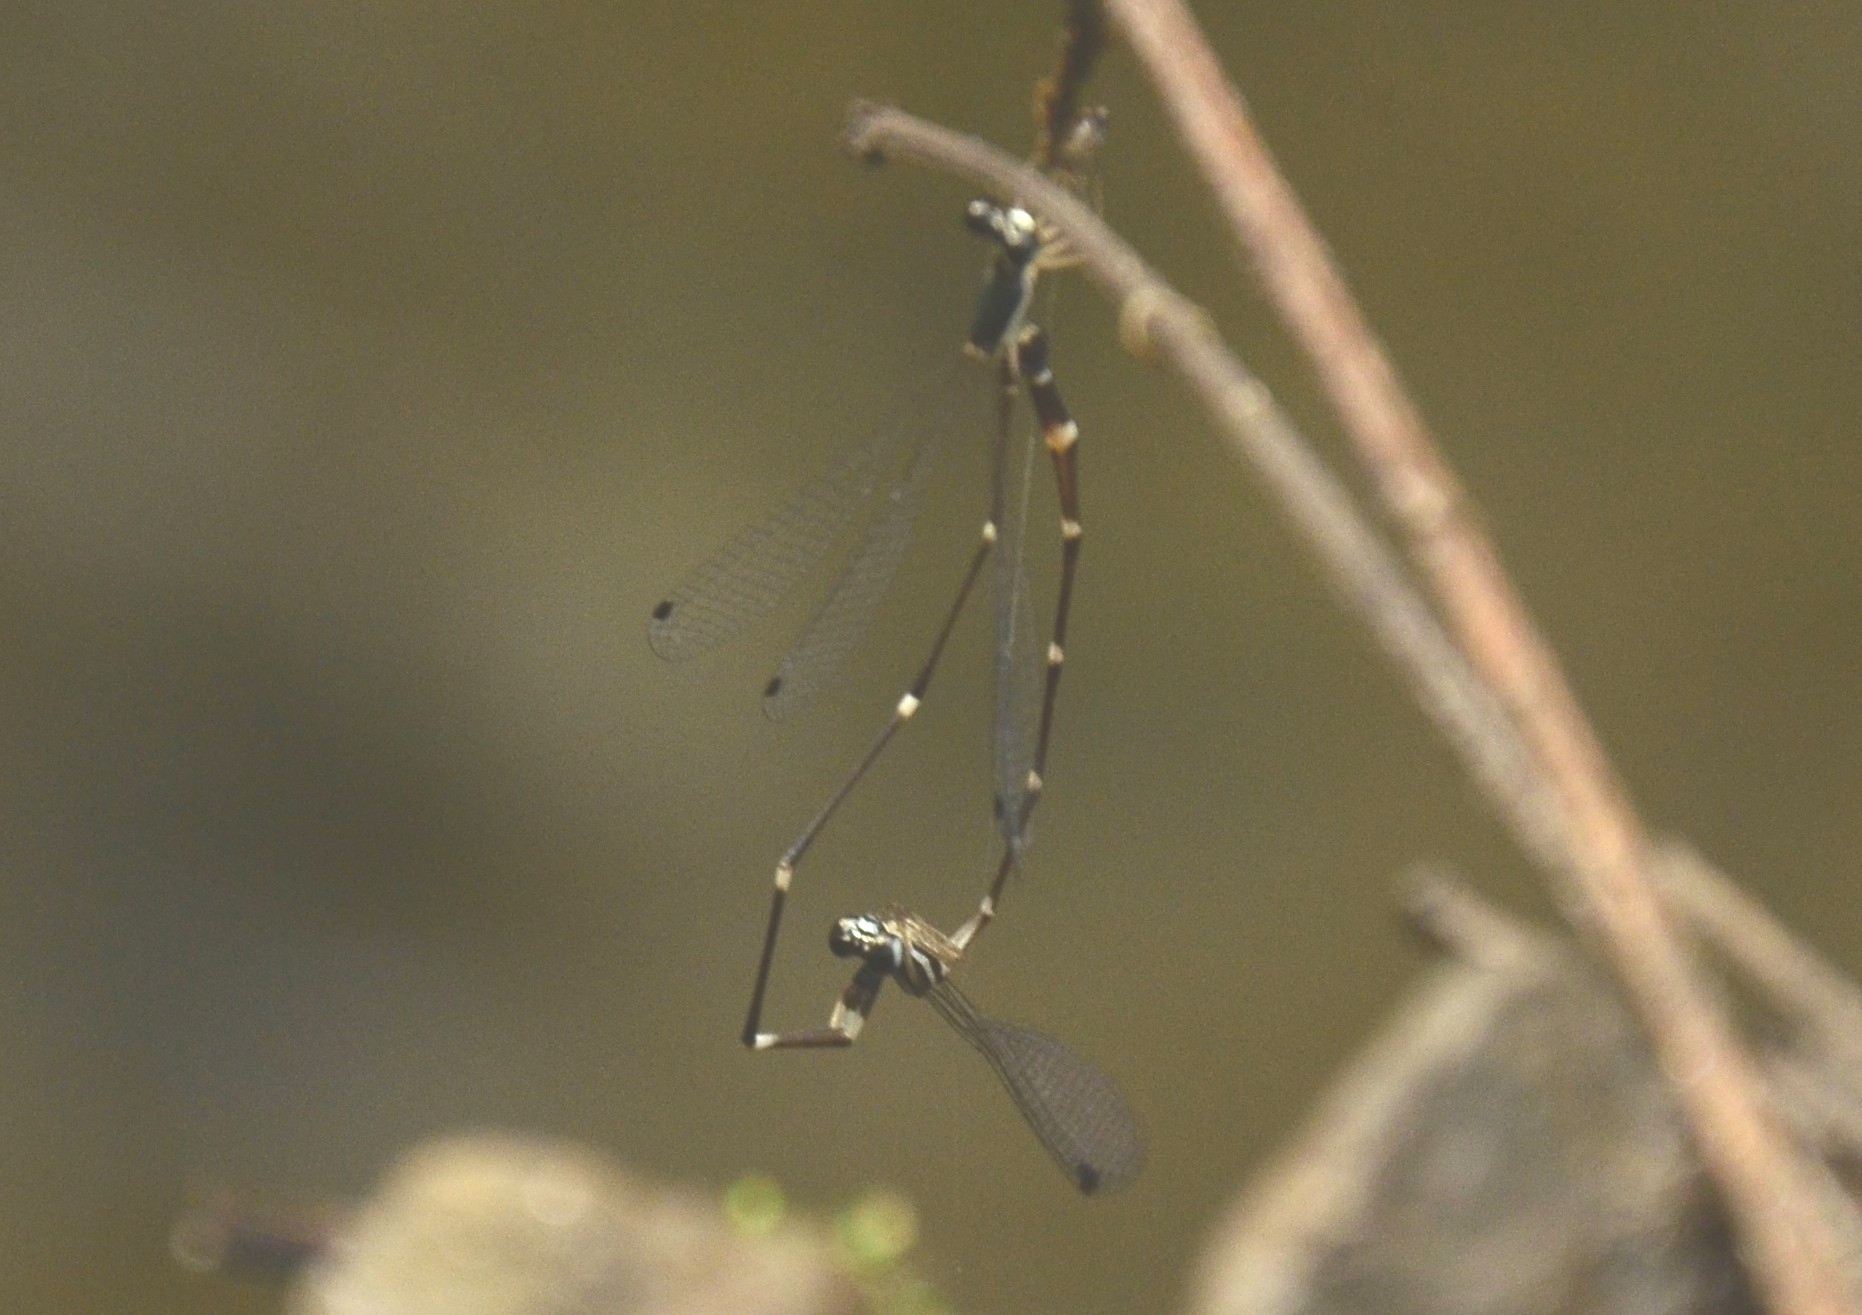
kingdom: Animalia
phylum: Arthropoda
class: Insecta
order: Odonata
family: Platystictidae
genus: Protosticta
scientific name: Protosticta gravelyi
